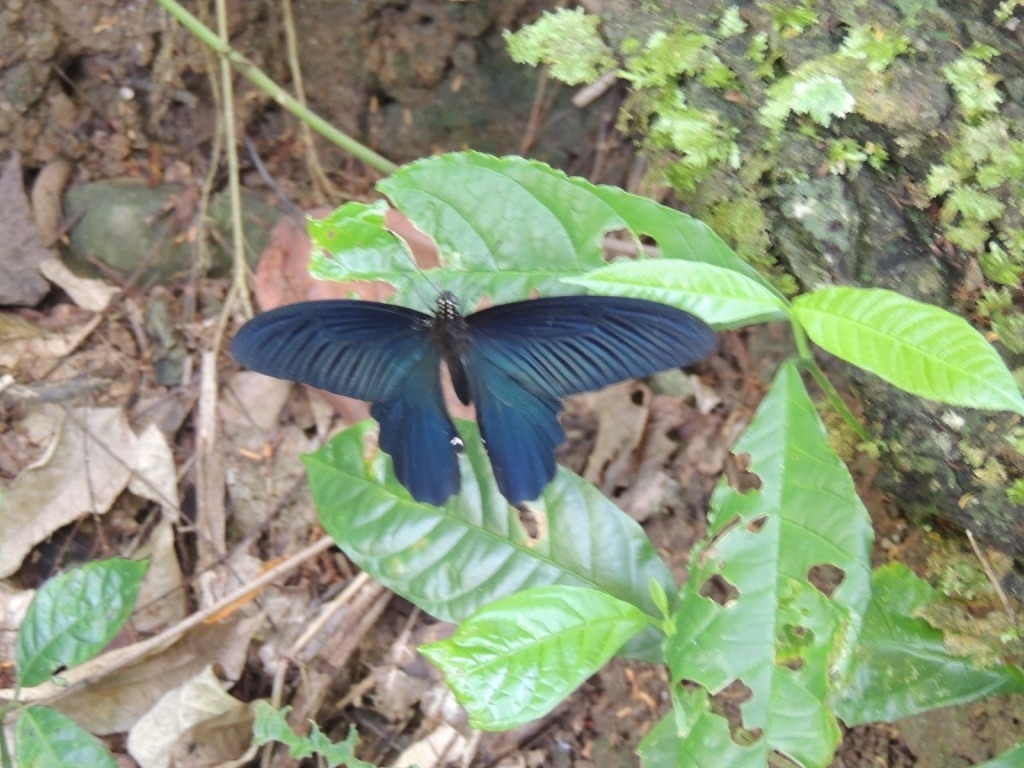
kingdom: Animalia
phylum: Arthropoda
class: Insecta
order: Lepidoptera
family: Papilionidae
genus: Papilio
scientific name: Papilio protenor
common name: Spangle
